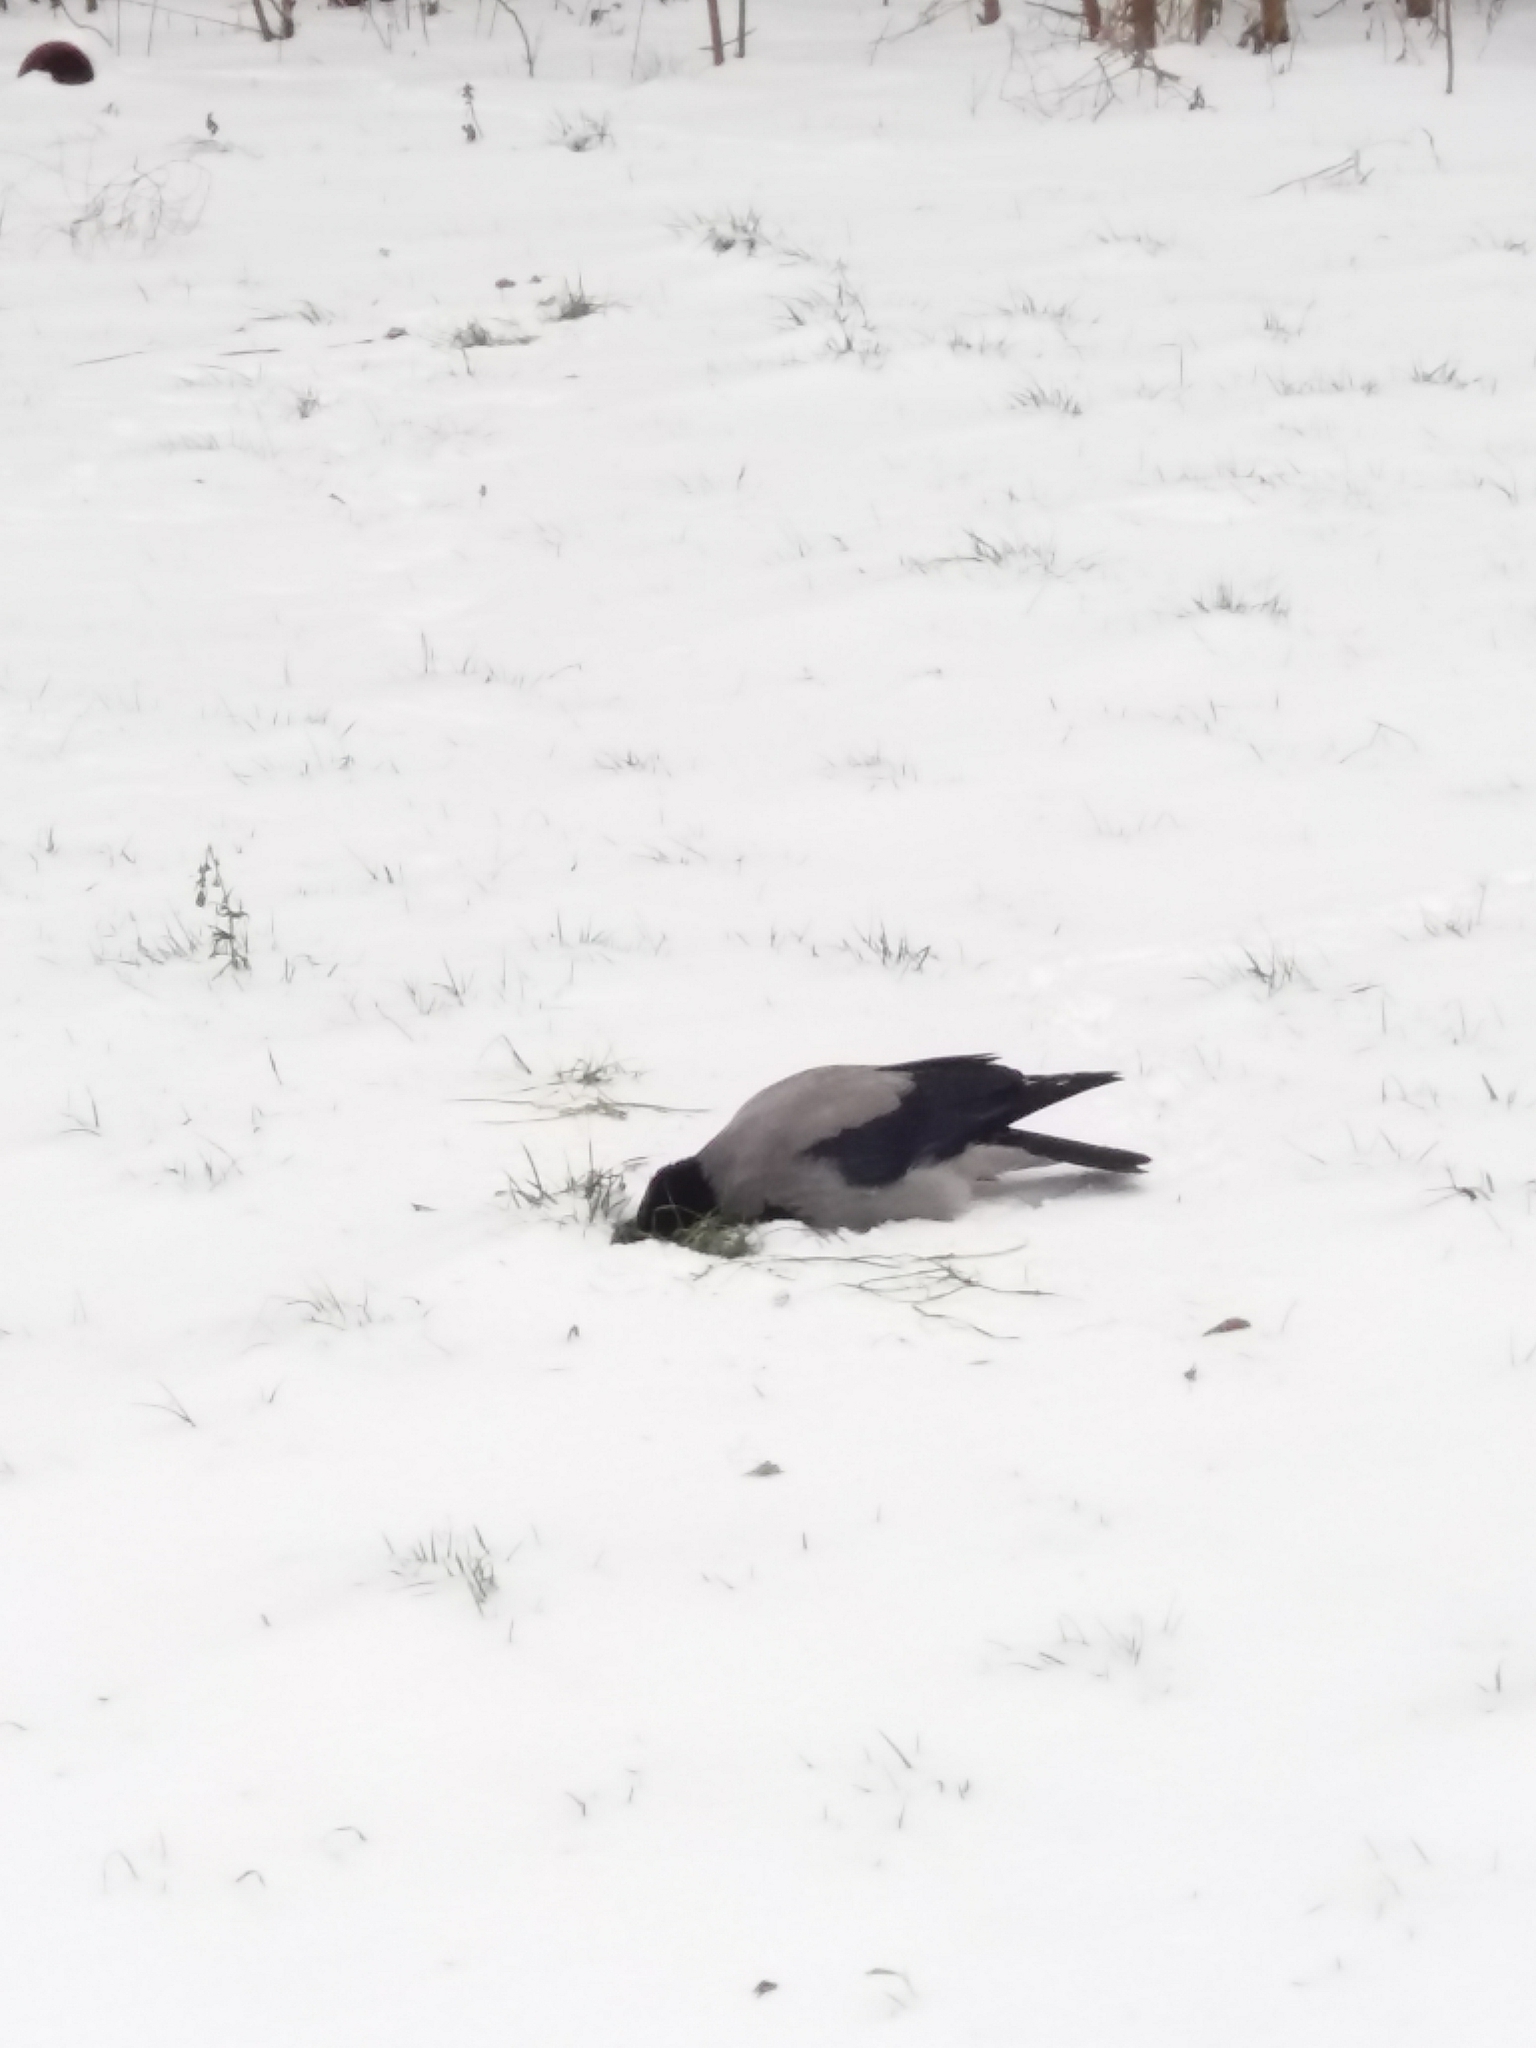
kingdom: Animalia
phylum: Chordata
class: Aves
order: Passeriformes
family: Corvidae
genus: Corvus
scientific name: Corvus cornix
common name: Hooded crow
